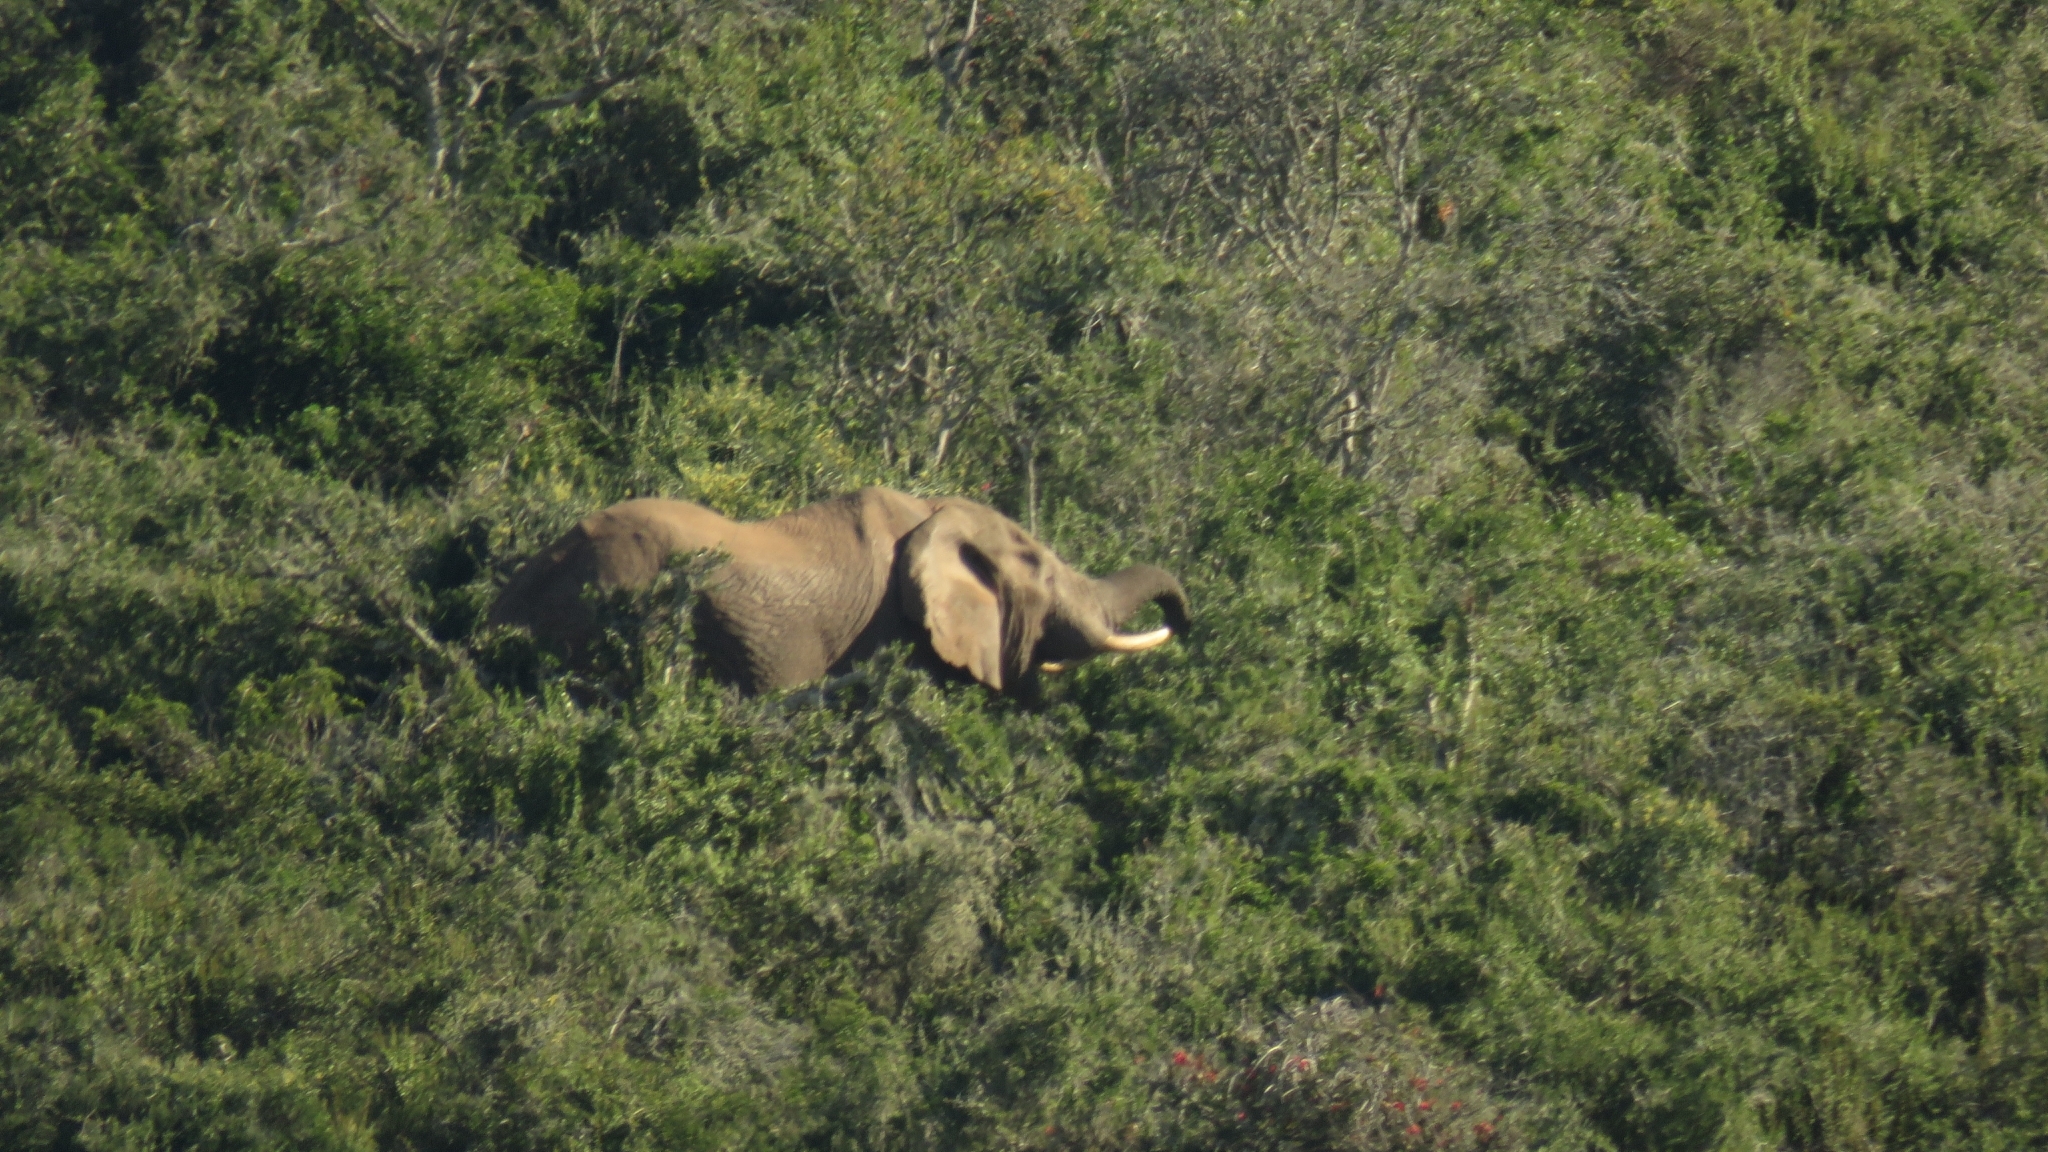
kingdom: Animalia
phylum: Chordata
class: Mammalia
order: Proboscidea
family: Elephantidae
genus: Loxodonta
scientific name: Loxodonta africana
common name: African elephant
